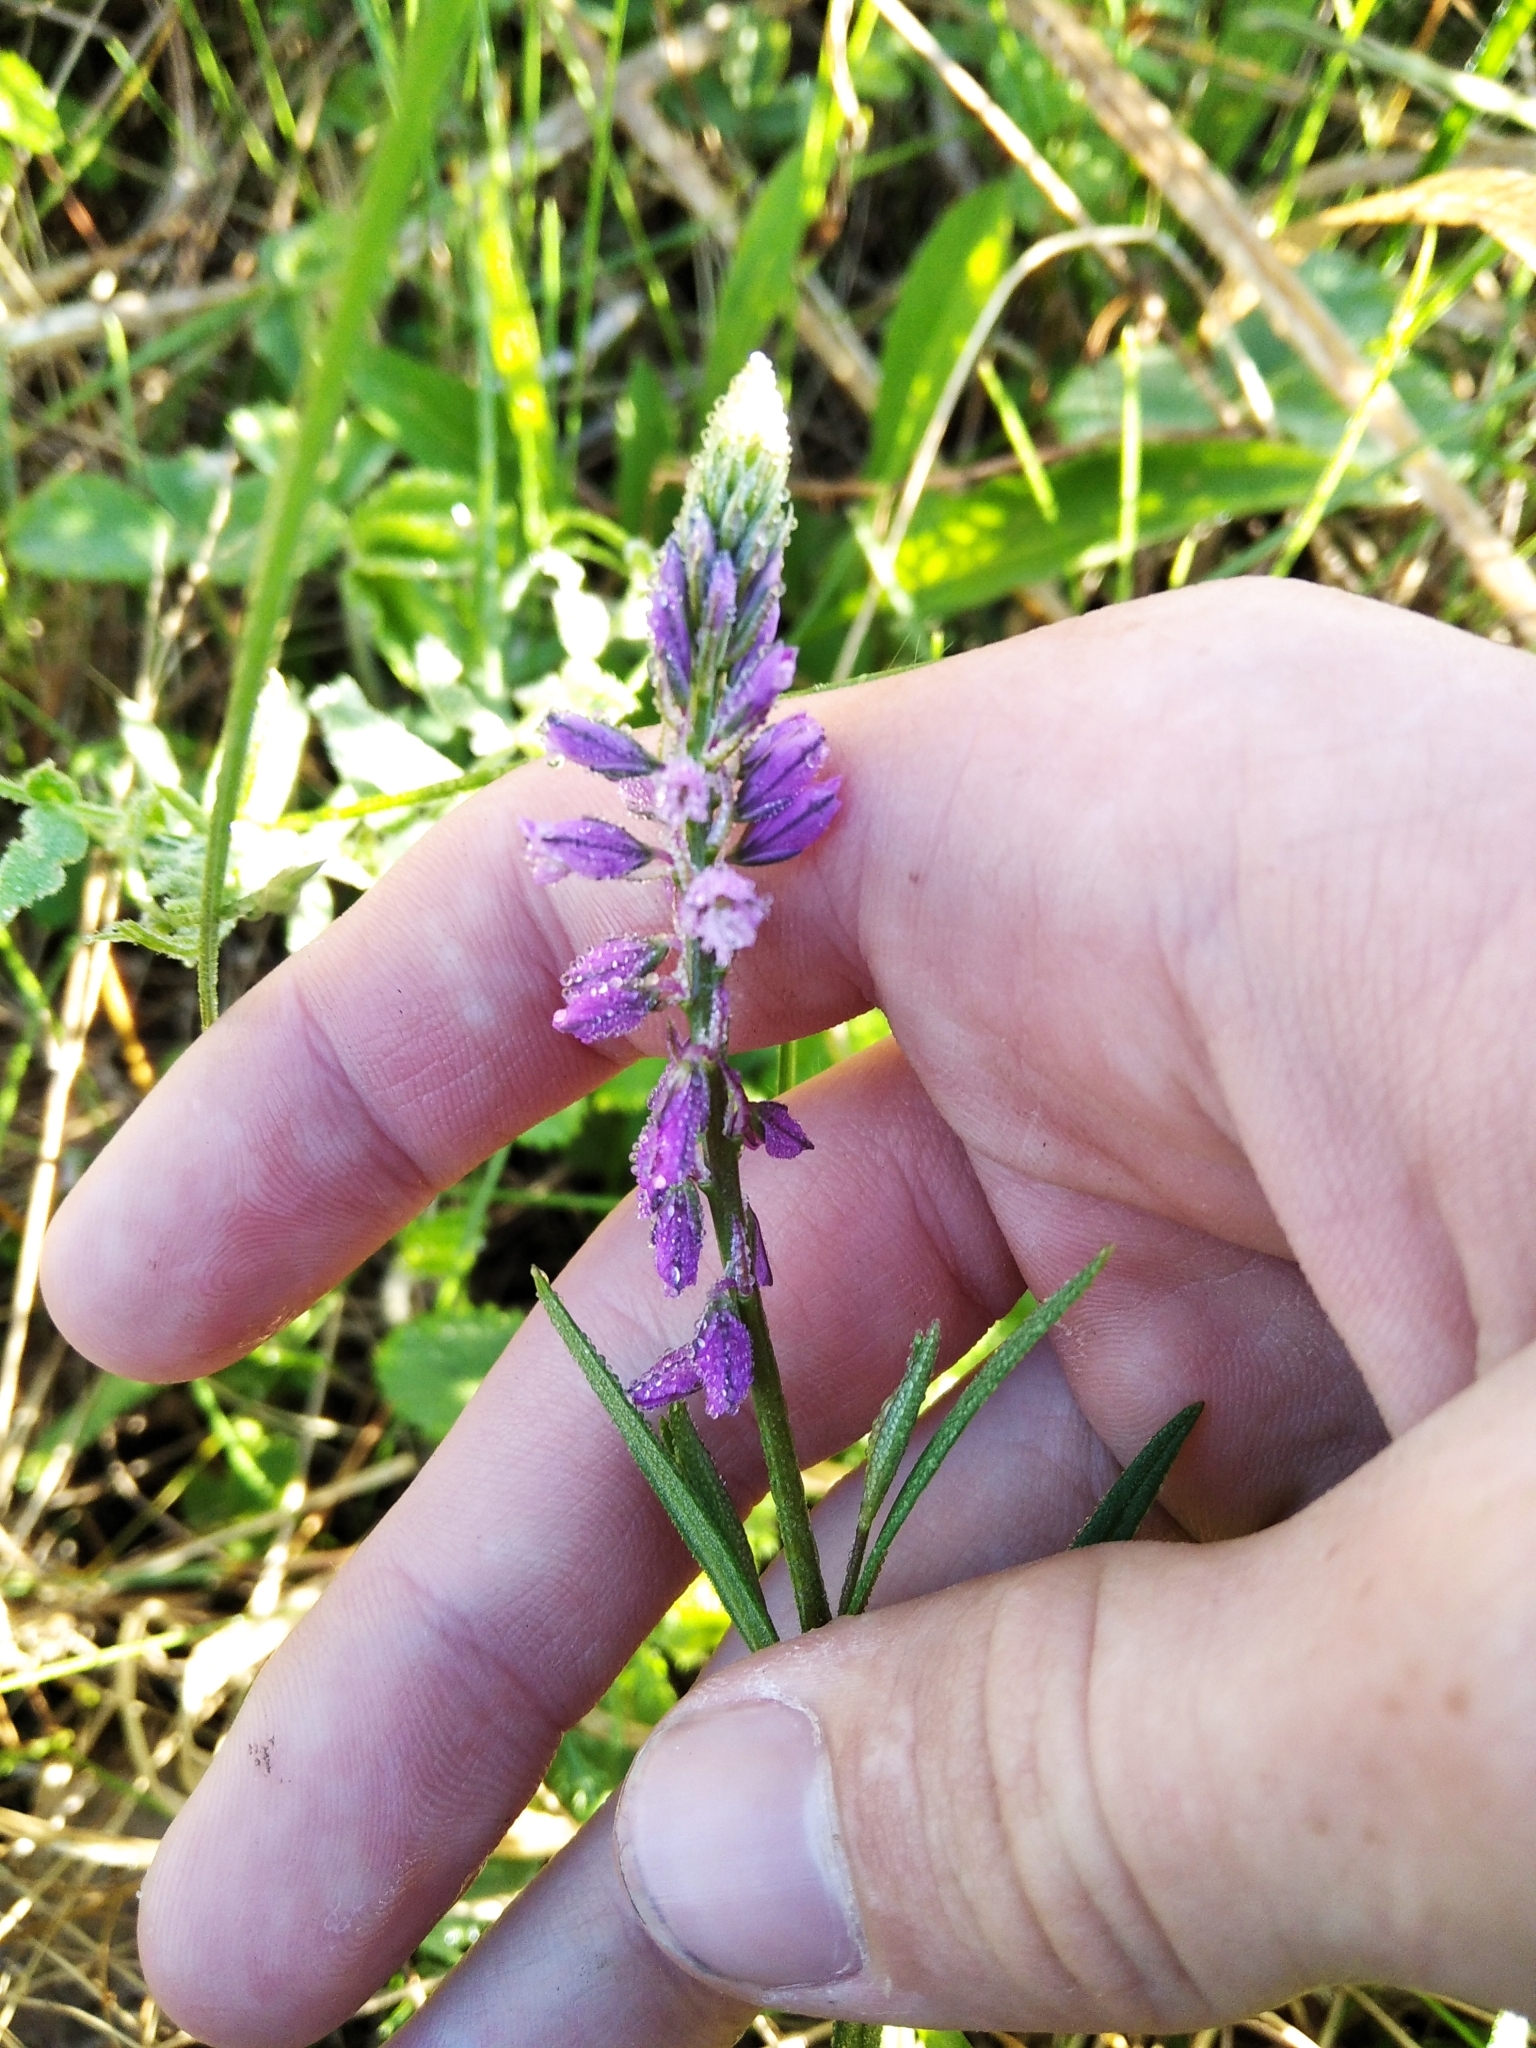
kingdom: Plantae
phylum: Tracheophyta
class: Magnoliopsida
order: Fabales
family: Polygalaceae
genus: Polygala
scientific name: Polygala comosa
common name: Tufted milkwort
